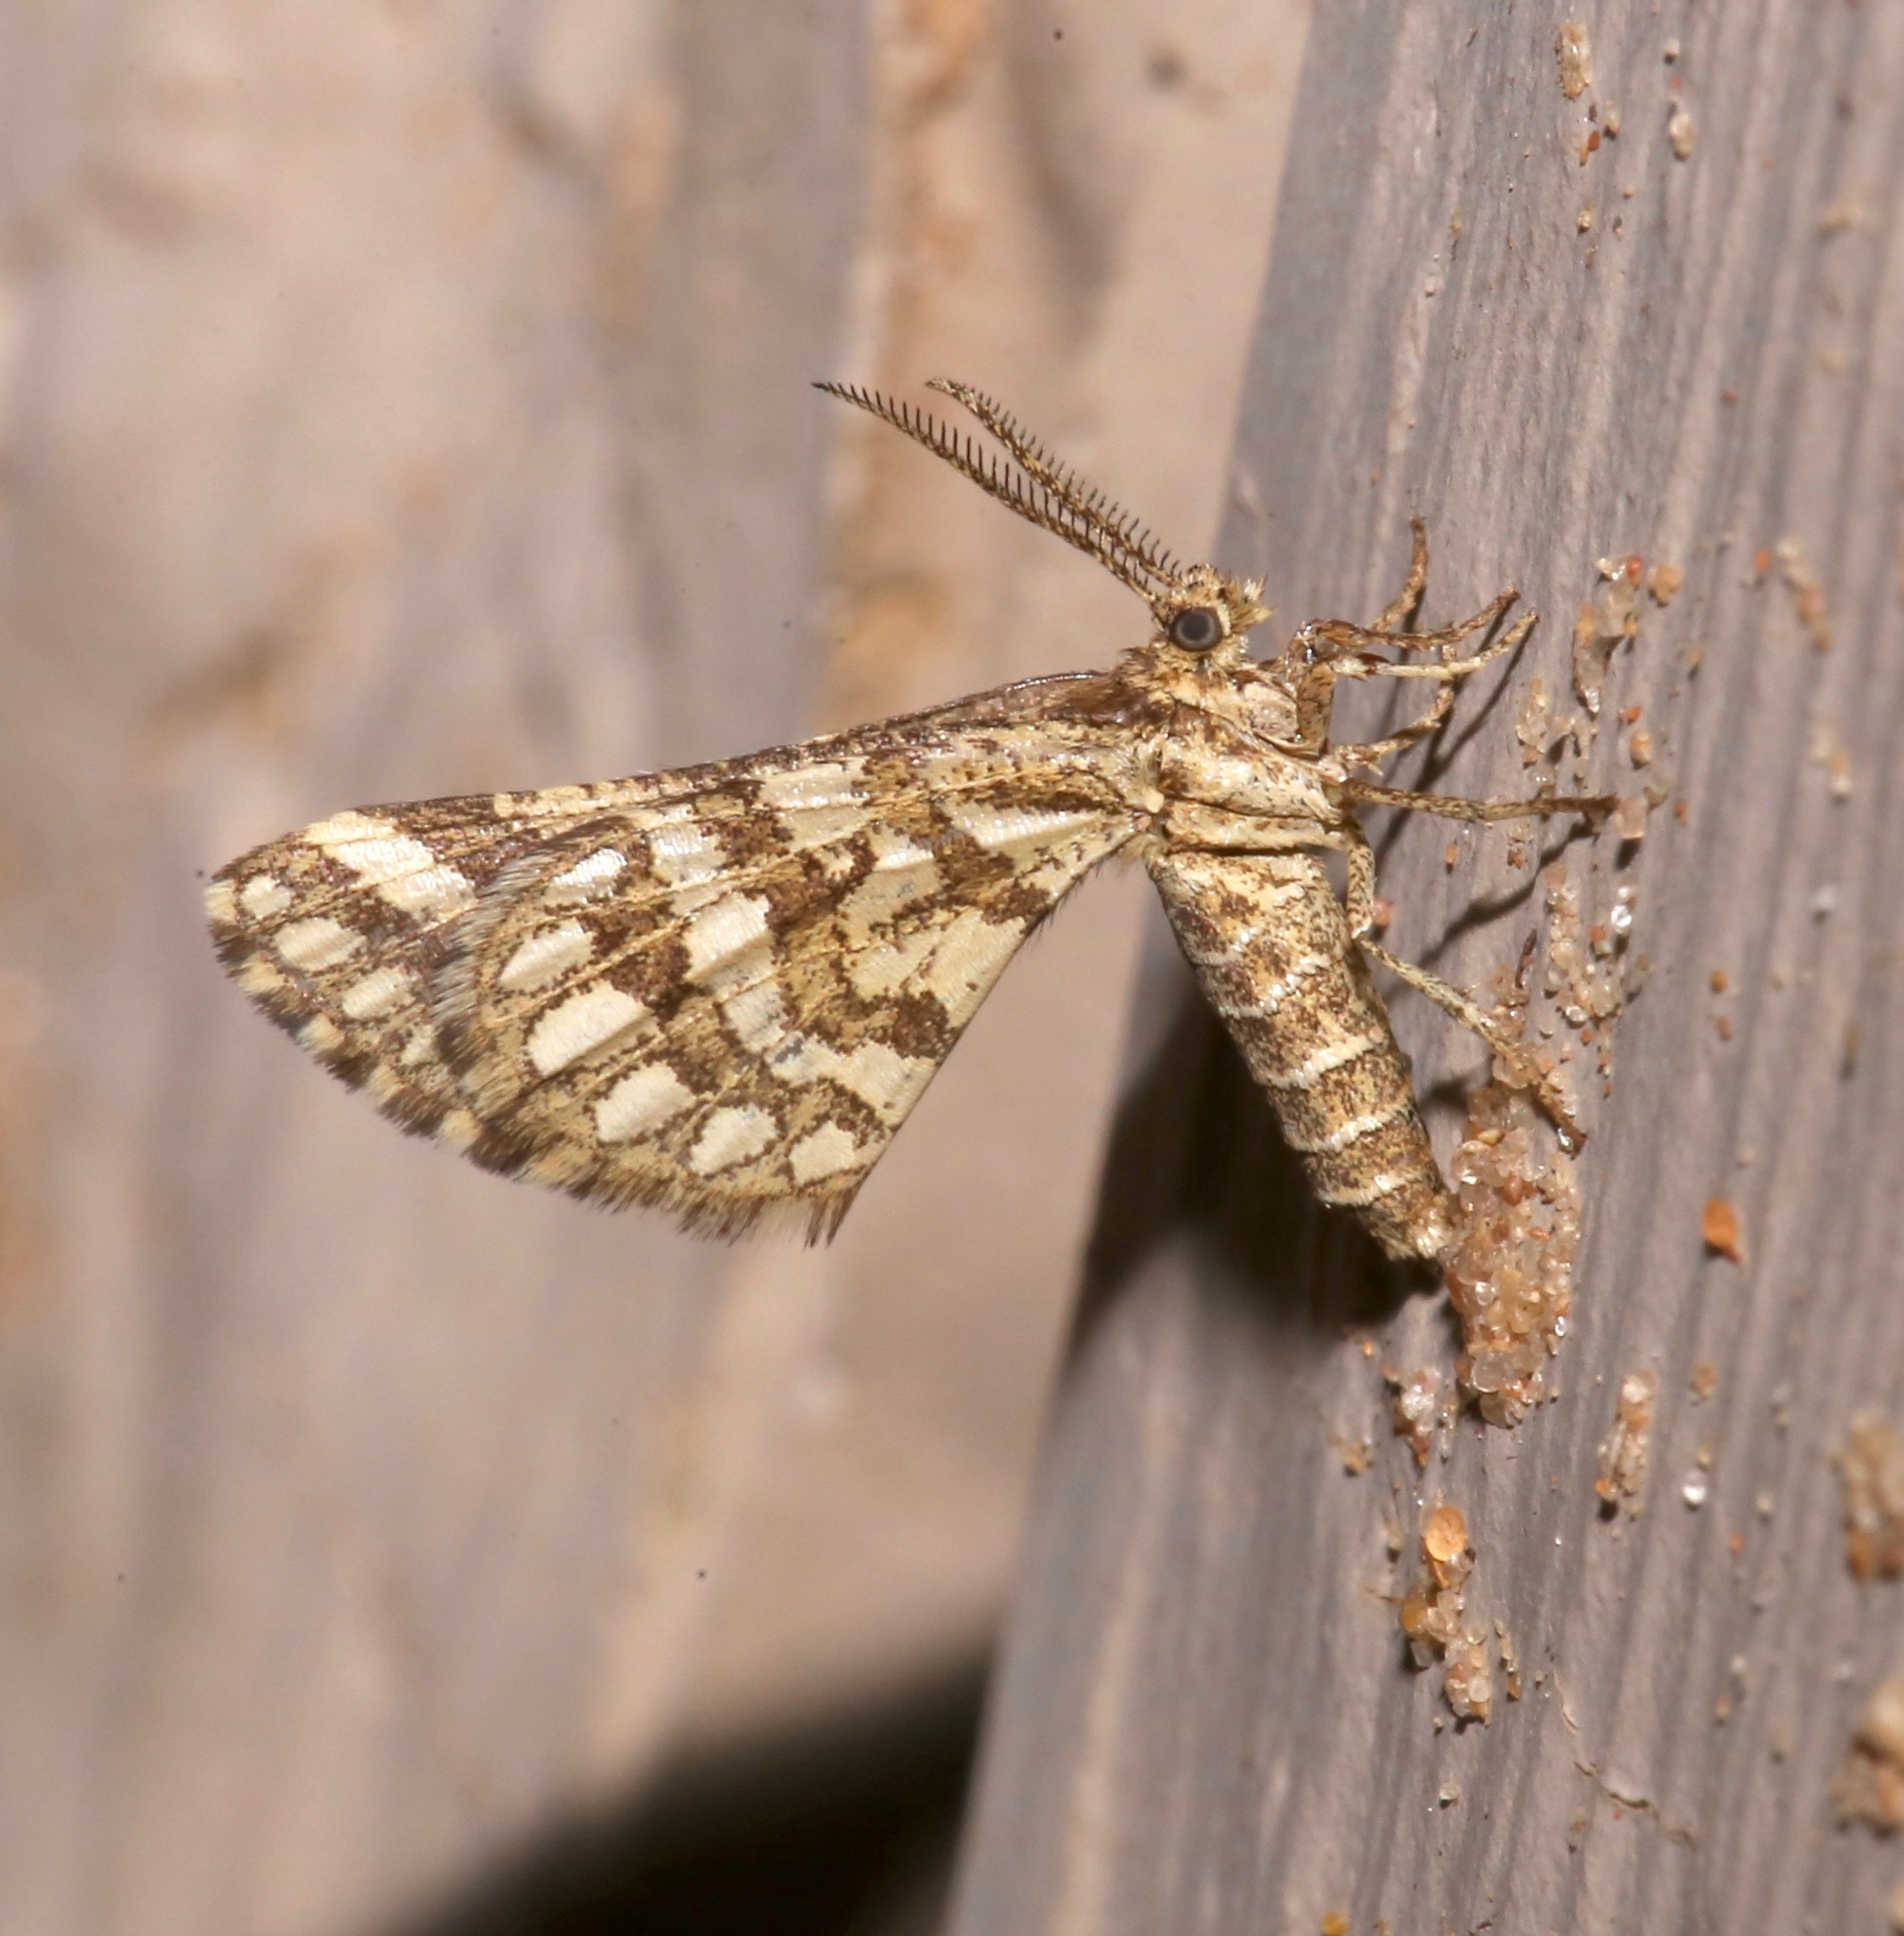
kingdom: Animalia
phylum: Arthropoda
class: Insecta
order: Lepidoptera
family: Geometridae
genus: Narraga
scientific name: Narraga fimetaria
